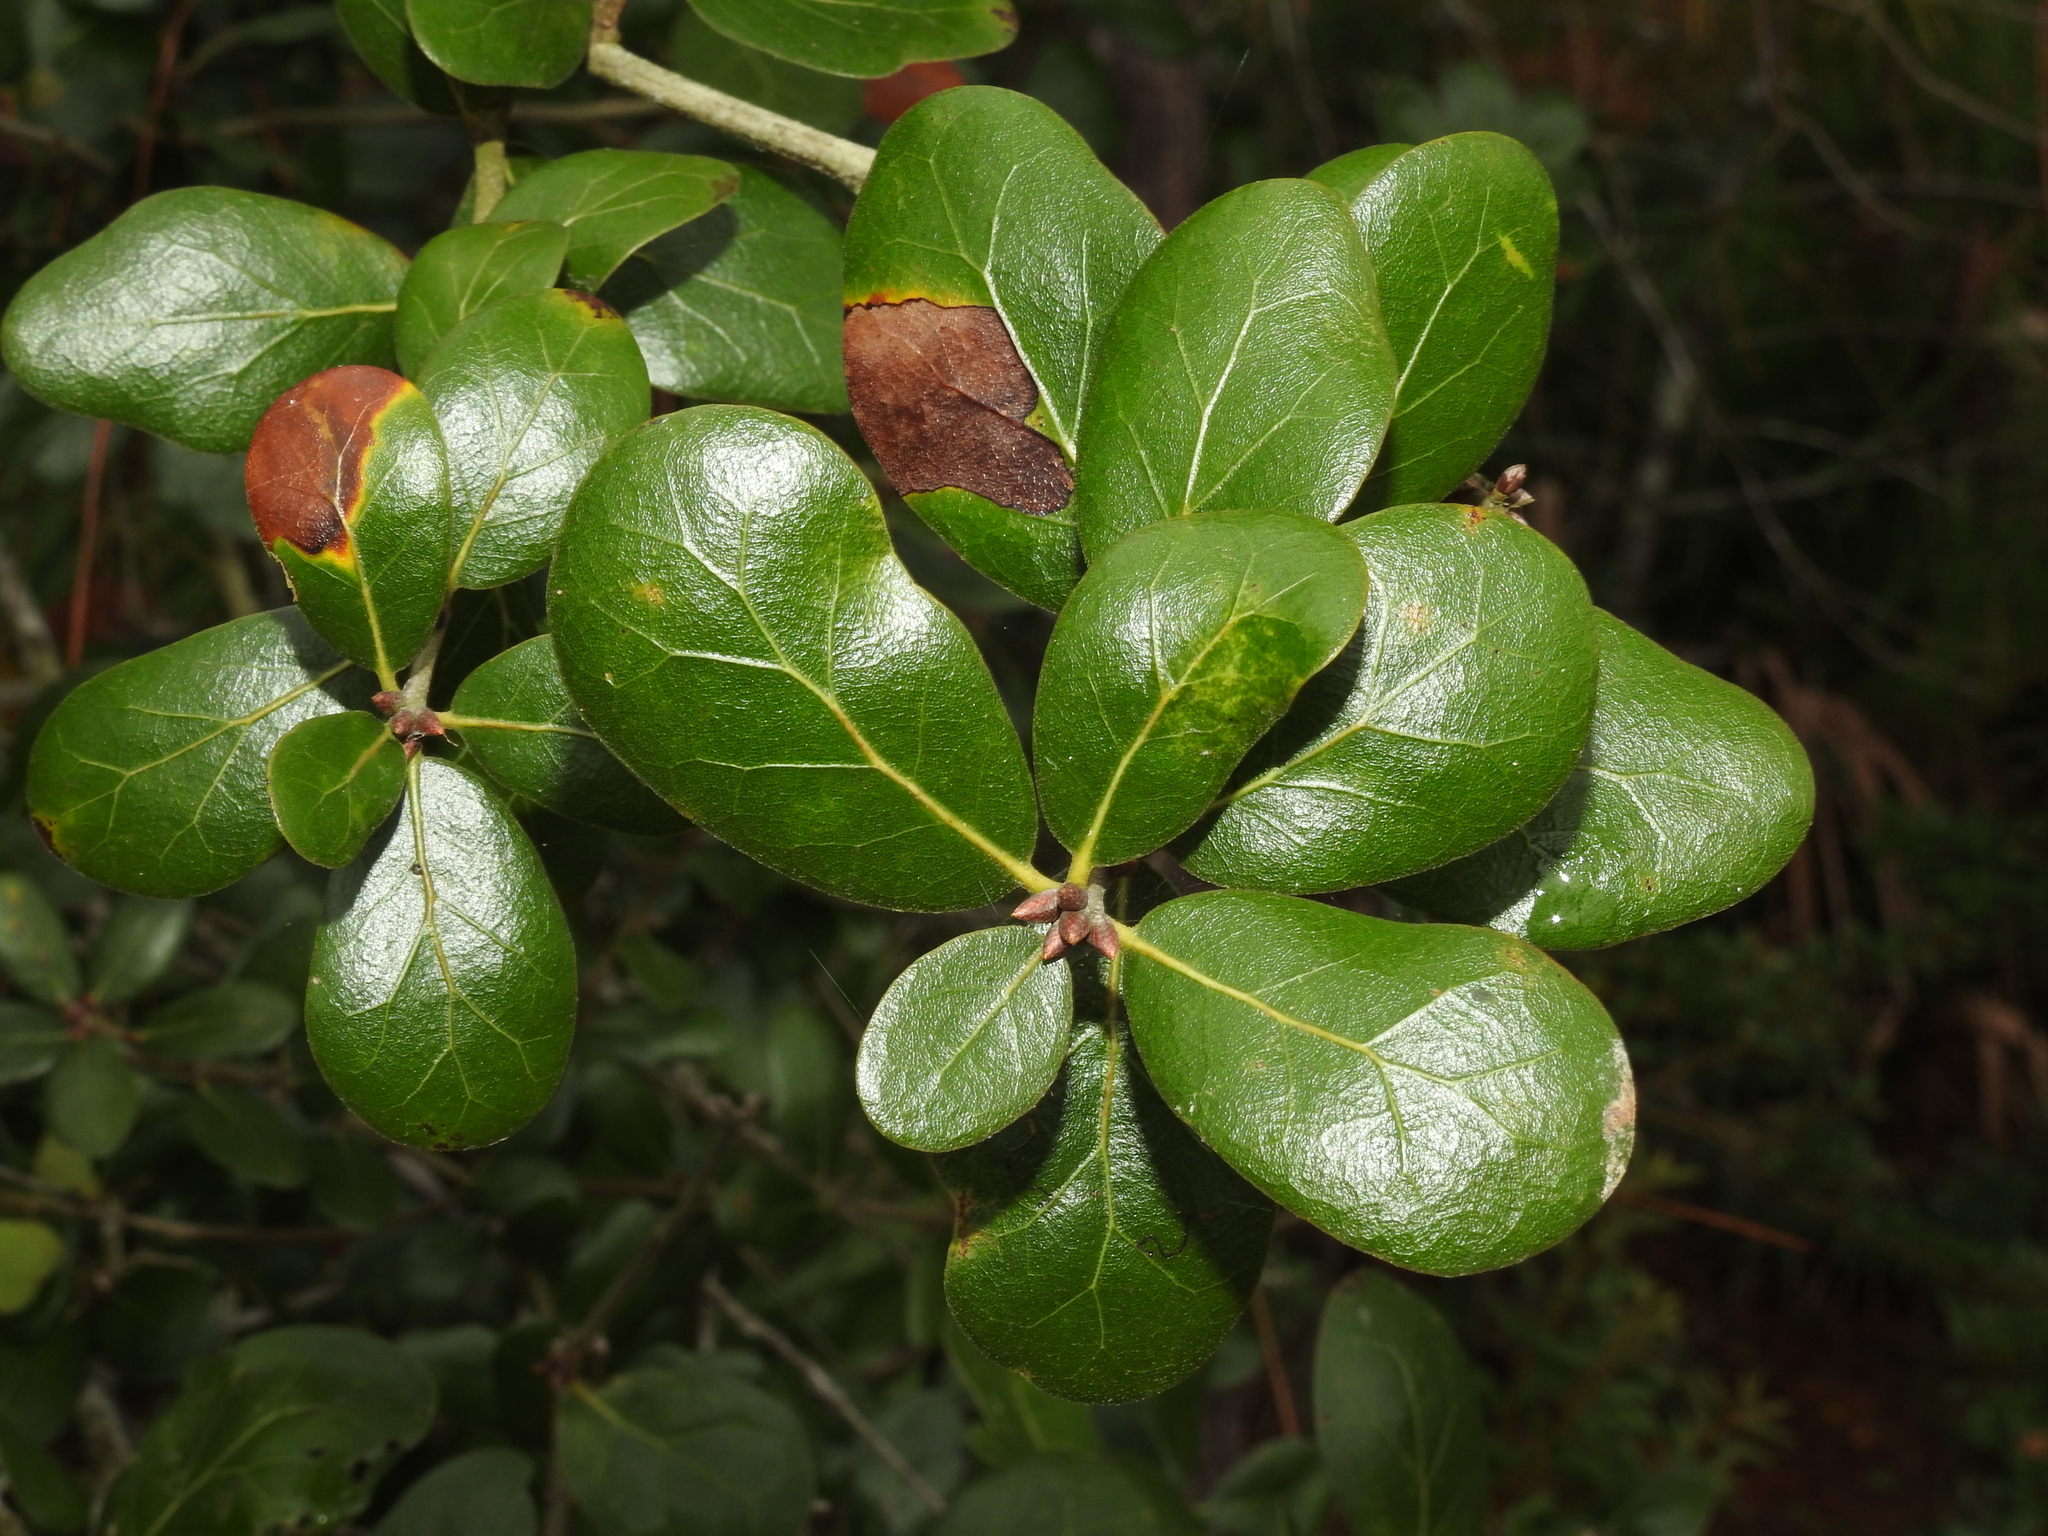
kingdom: Plantae
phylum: Tracheophyta
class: Magnoliopsida
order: Fagales
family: Fagaceae
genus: Quercus
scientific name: Quercus myrtifolia
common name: Myrtle oak
